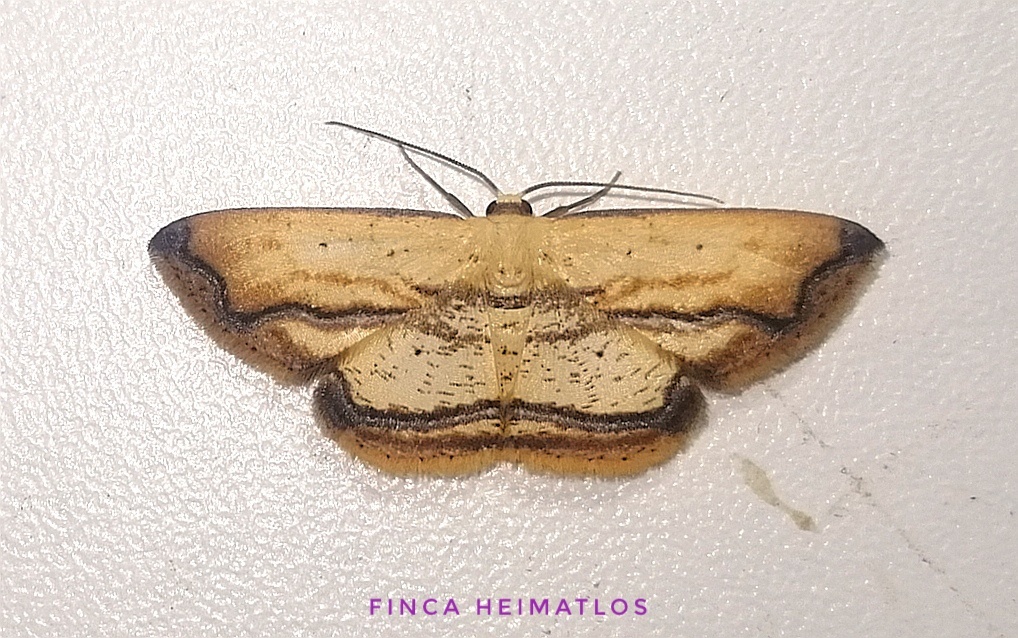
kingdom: Animalia
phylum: Arthropoda
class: Insecta
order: Lepidoptera
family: Geometridae
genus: Campatonema
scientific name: Campatonema marginata
